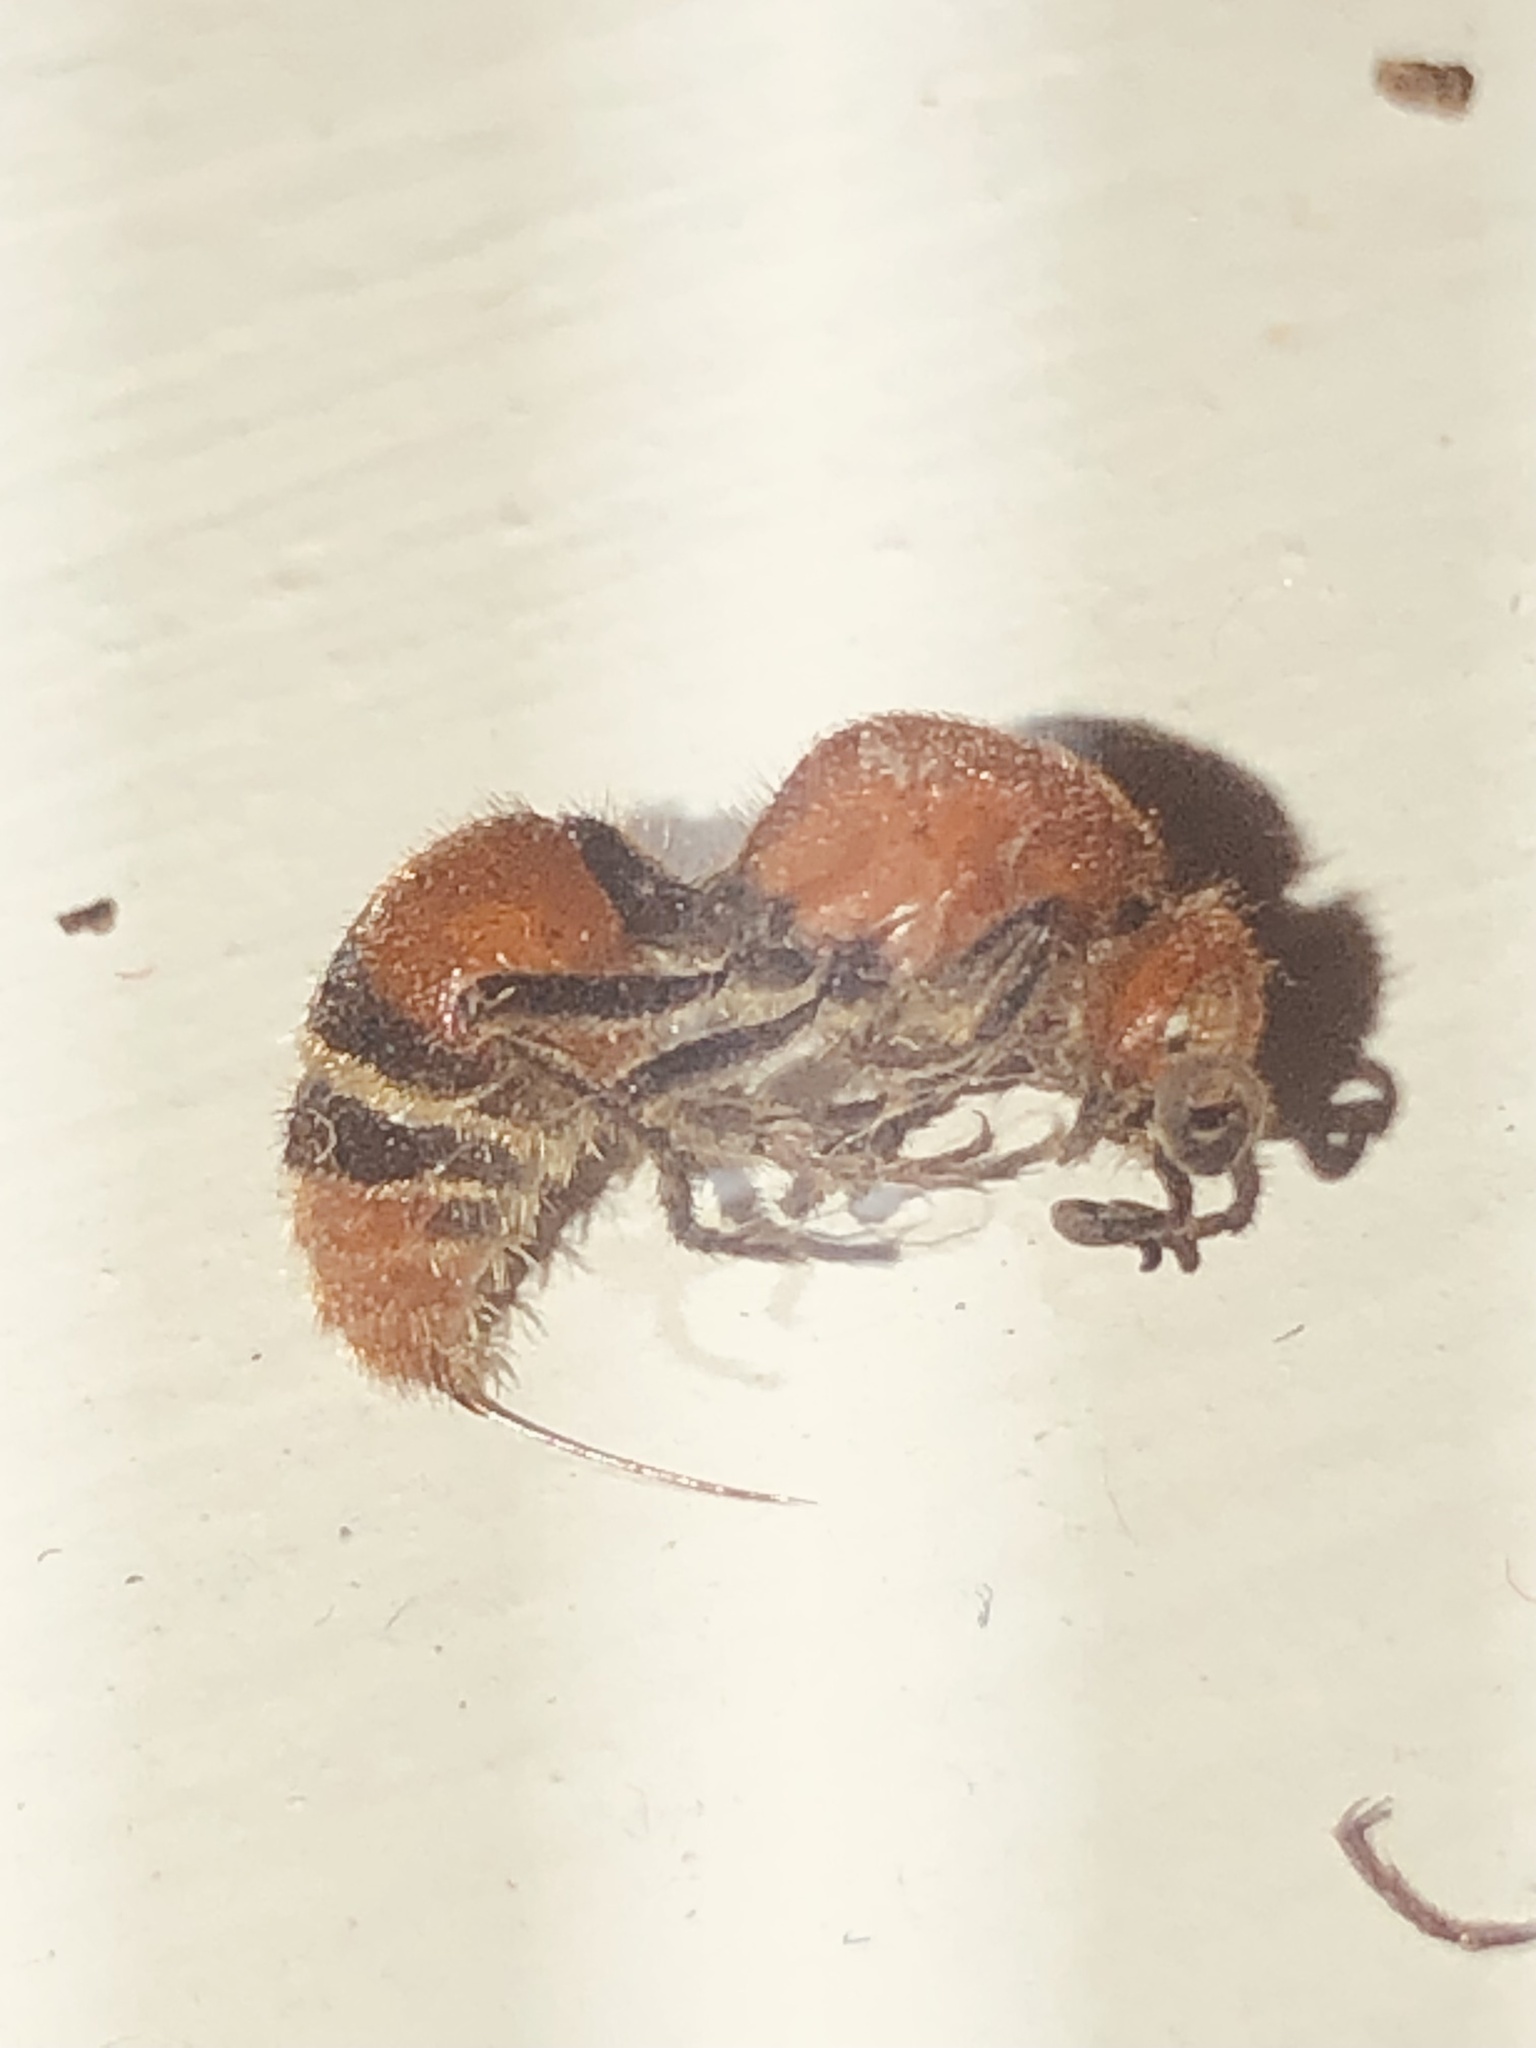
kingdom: Animalia
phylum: Arthropoda
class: Insecta
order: Hymenoptera
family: Mutillidae
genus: Timulla
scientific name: Timulla
